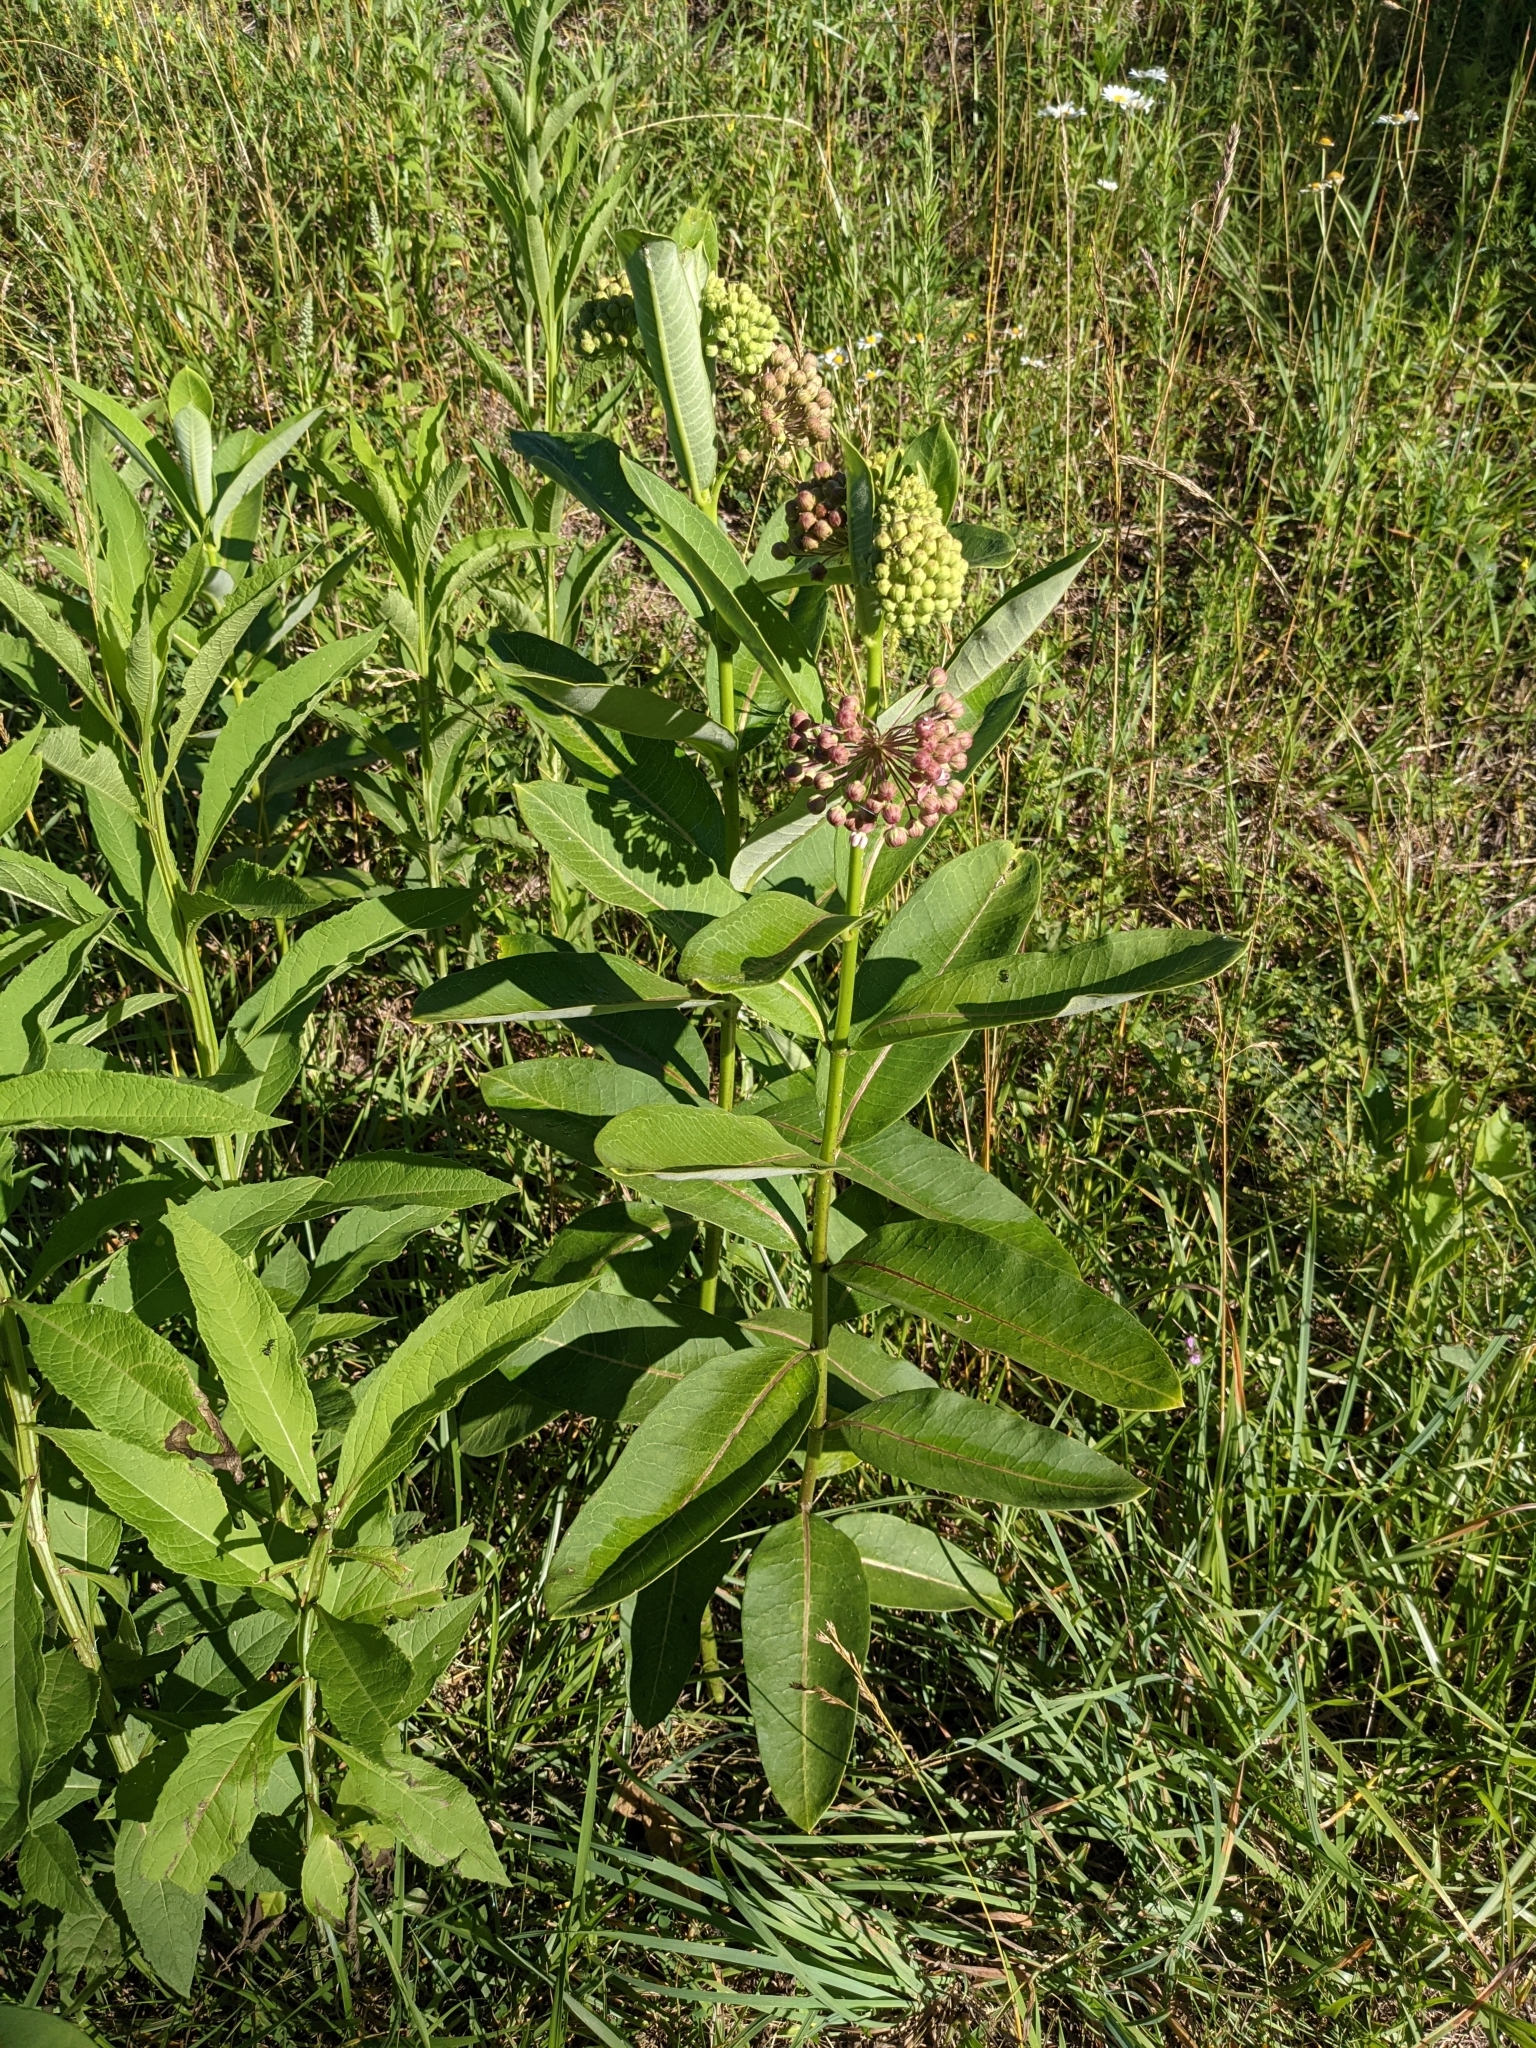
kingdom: Plantae
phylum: Tracheophyta
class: Magnoliopsida
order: Gentianales
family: Apocynaceae
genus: Asclepias
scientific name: Asclepias syriaca
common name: Common milkweed
